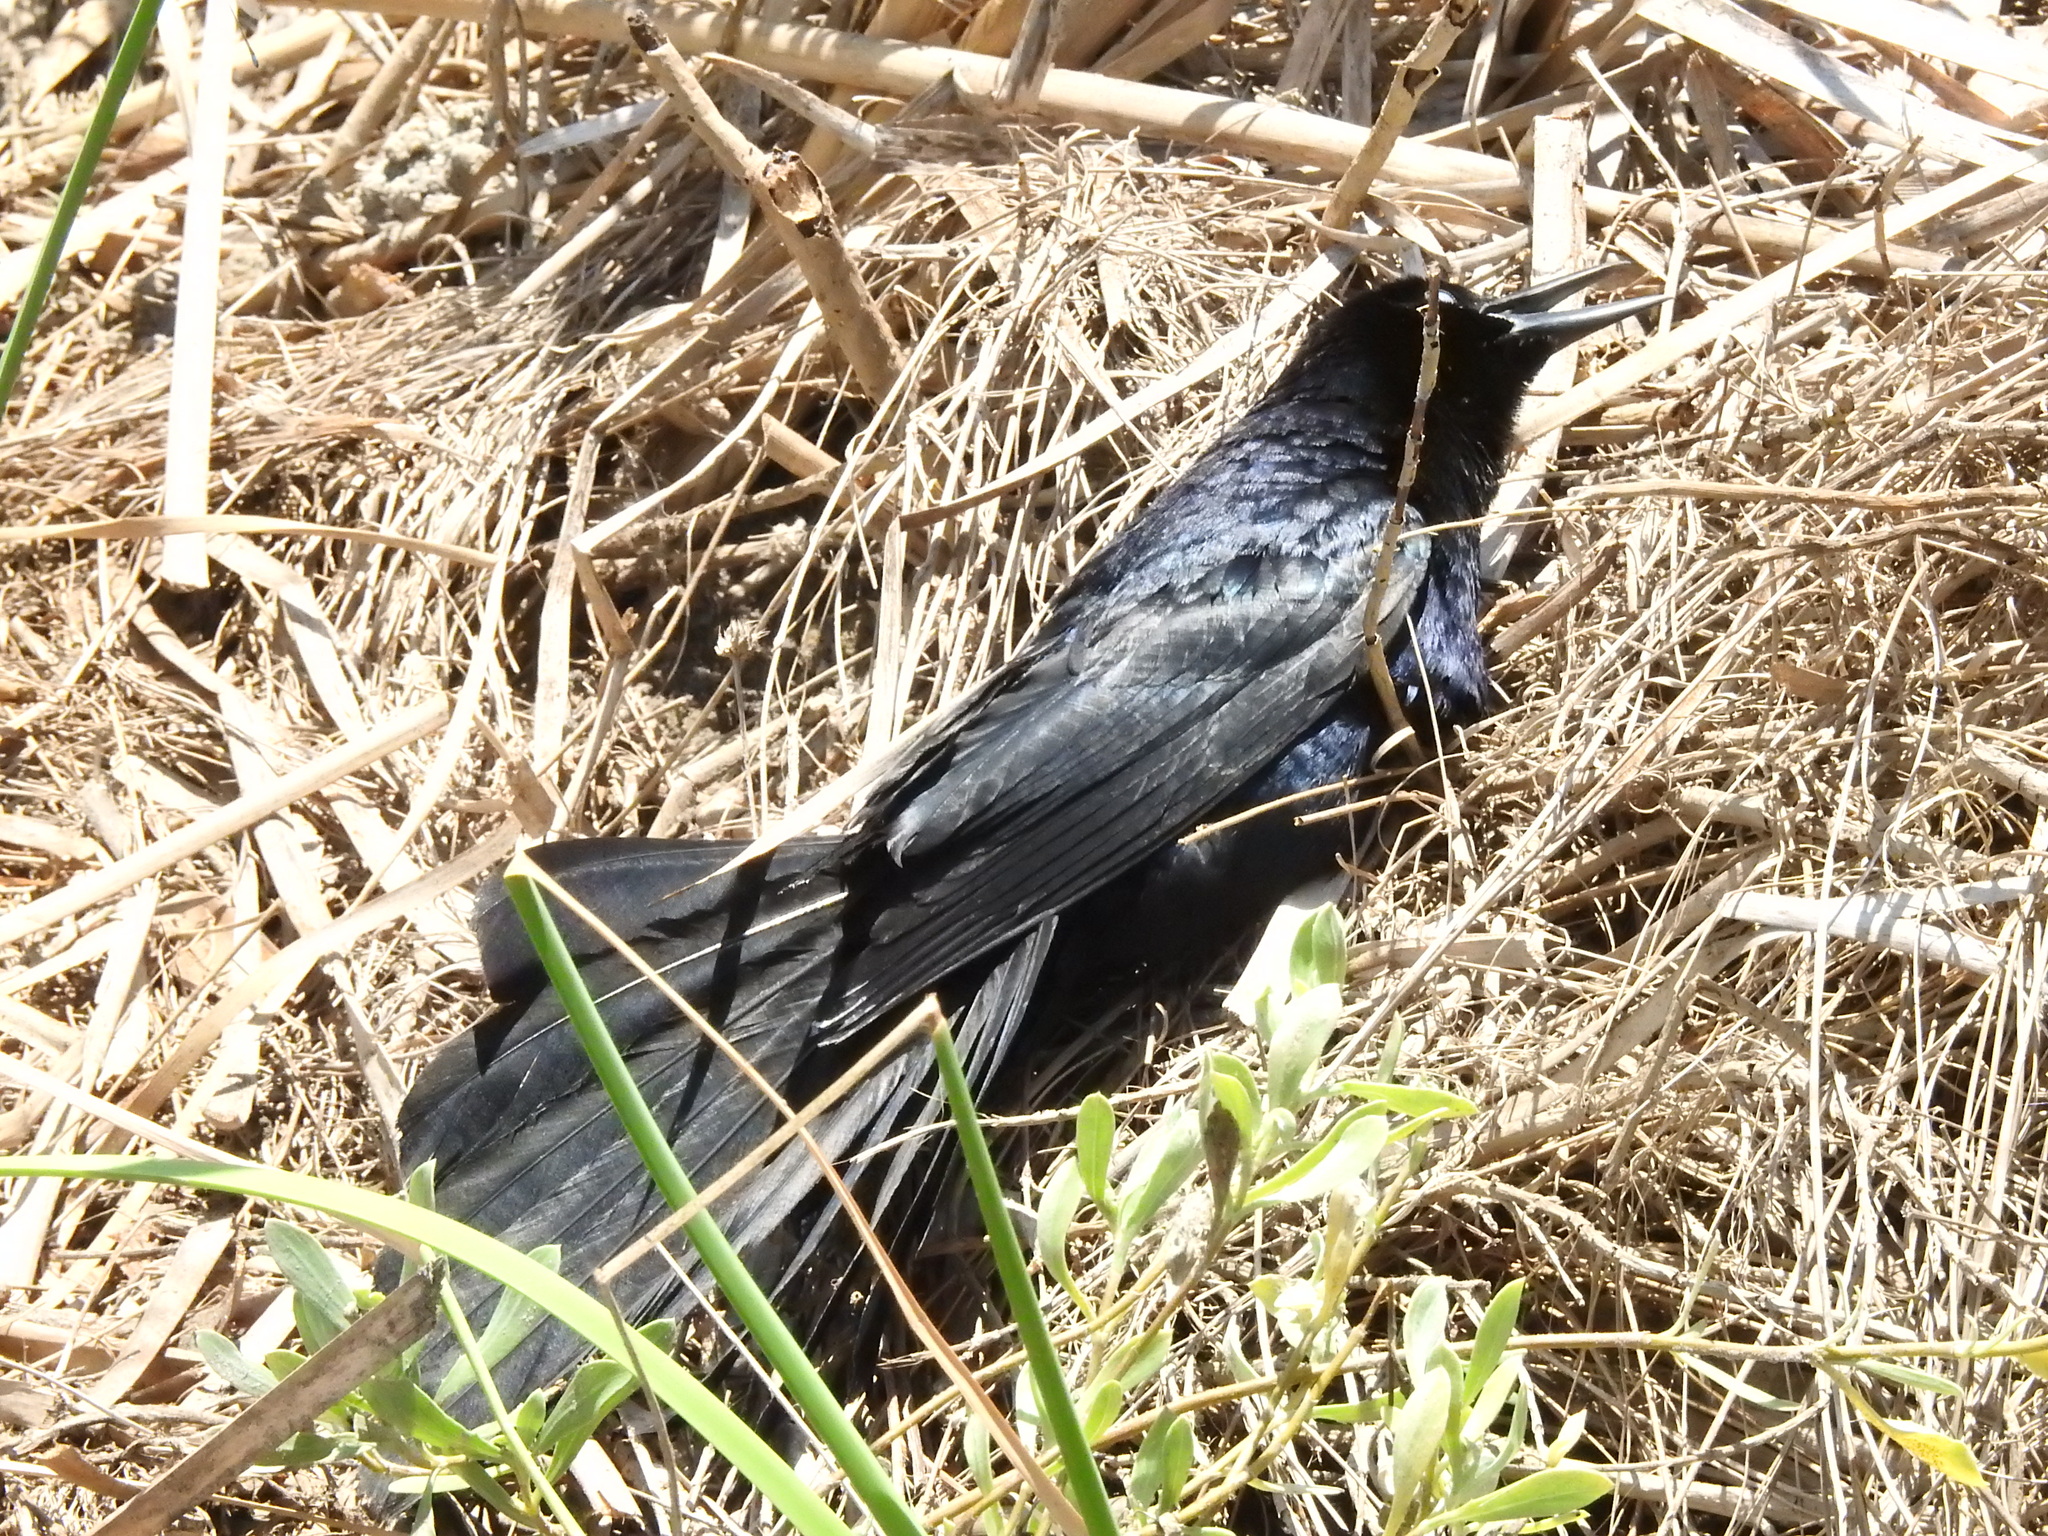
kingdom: Animalia
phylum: Chordata
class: Aves
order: Passeriformes
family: Icteridae
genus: Quiscalus
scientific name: Quiscalus mexicanus
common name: Great-tailed grackle
